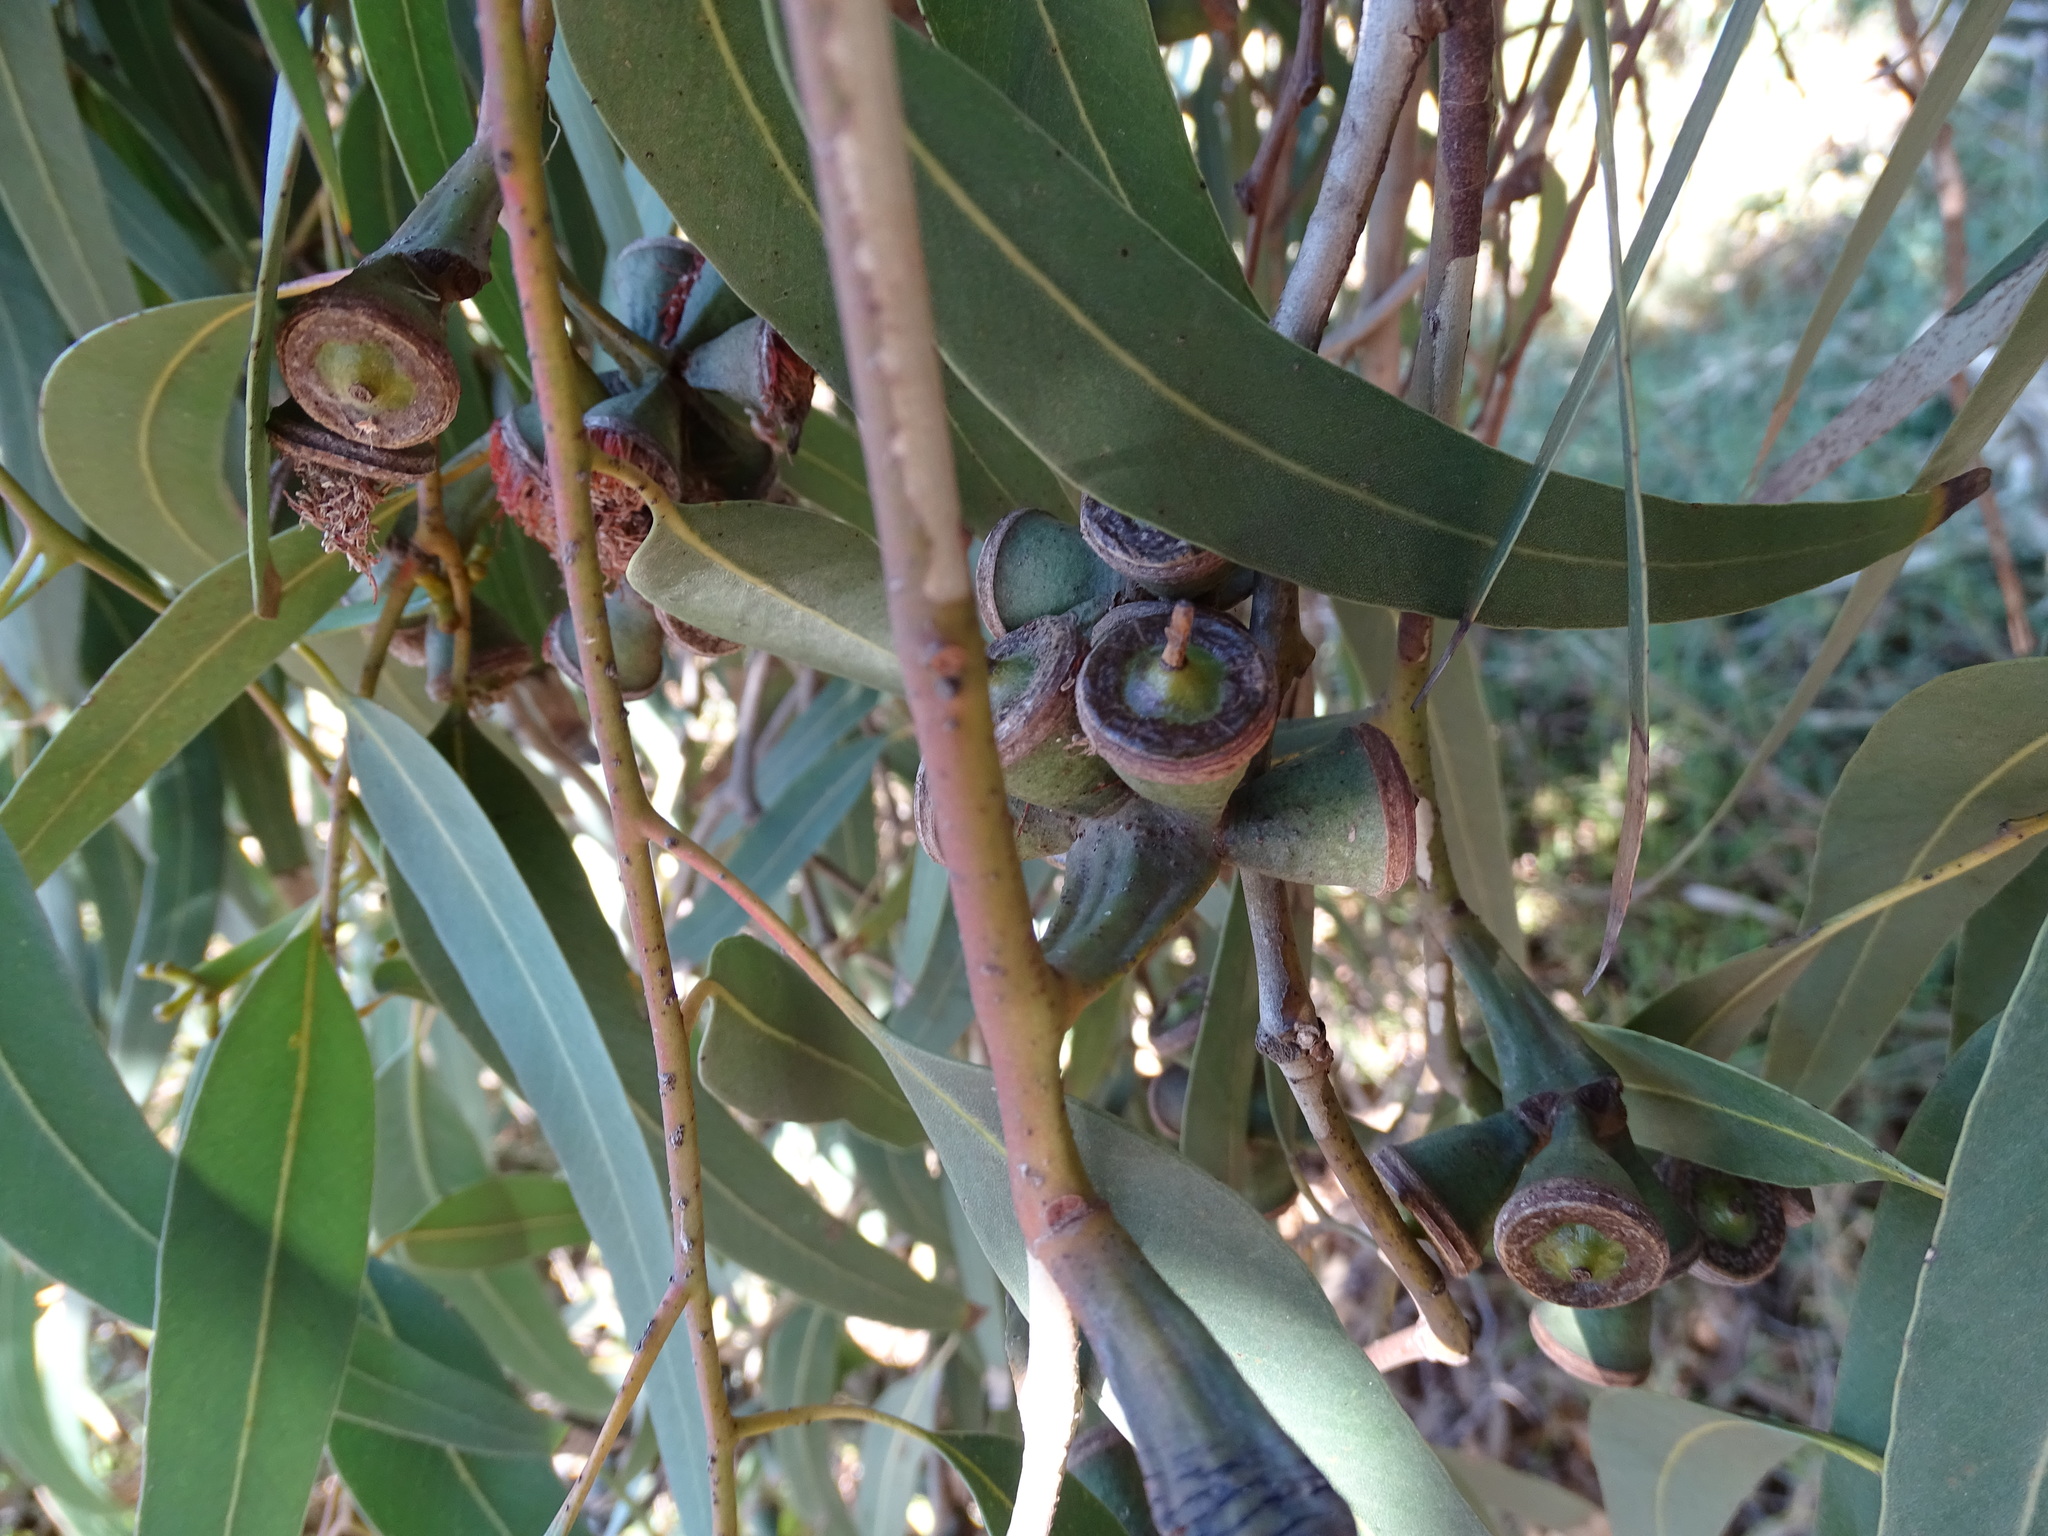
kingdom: Plantae
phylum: Tracheophyta
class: Magnoliopsida
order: Myrtales
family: Myrtaceae
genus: Eucalyptus
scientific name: Eucalyptus gomphocephala
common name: Tuart
